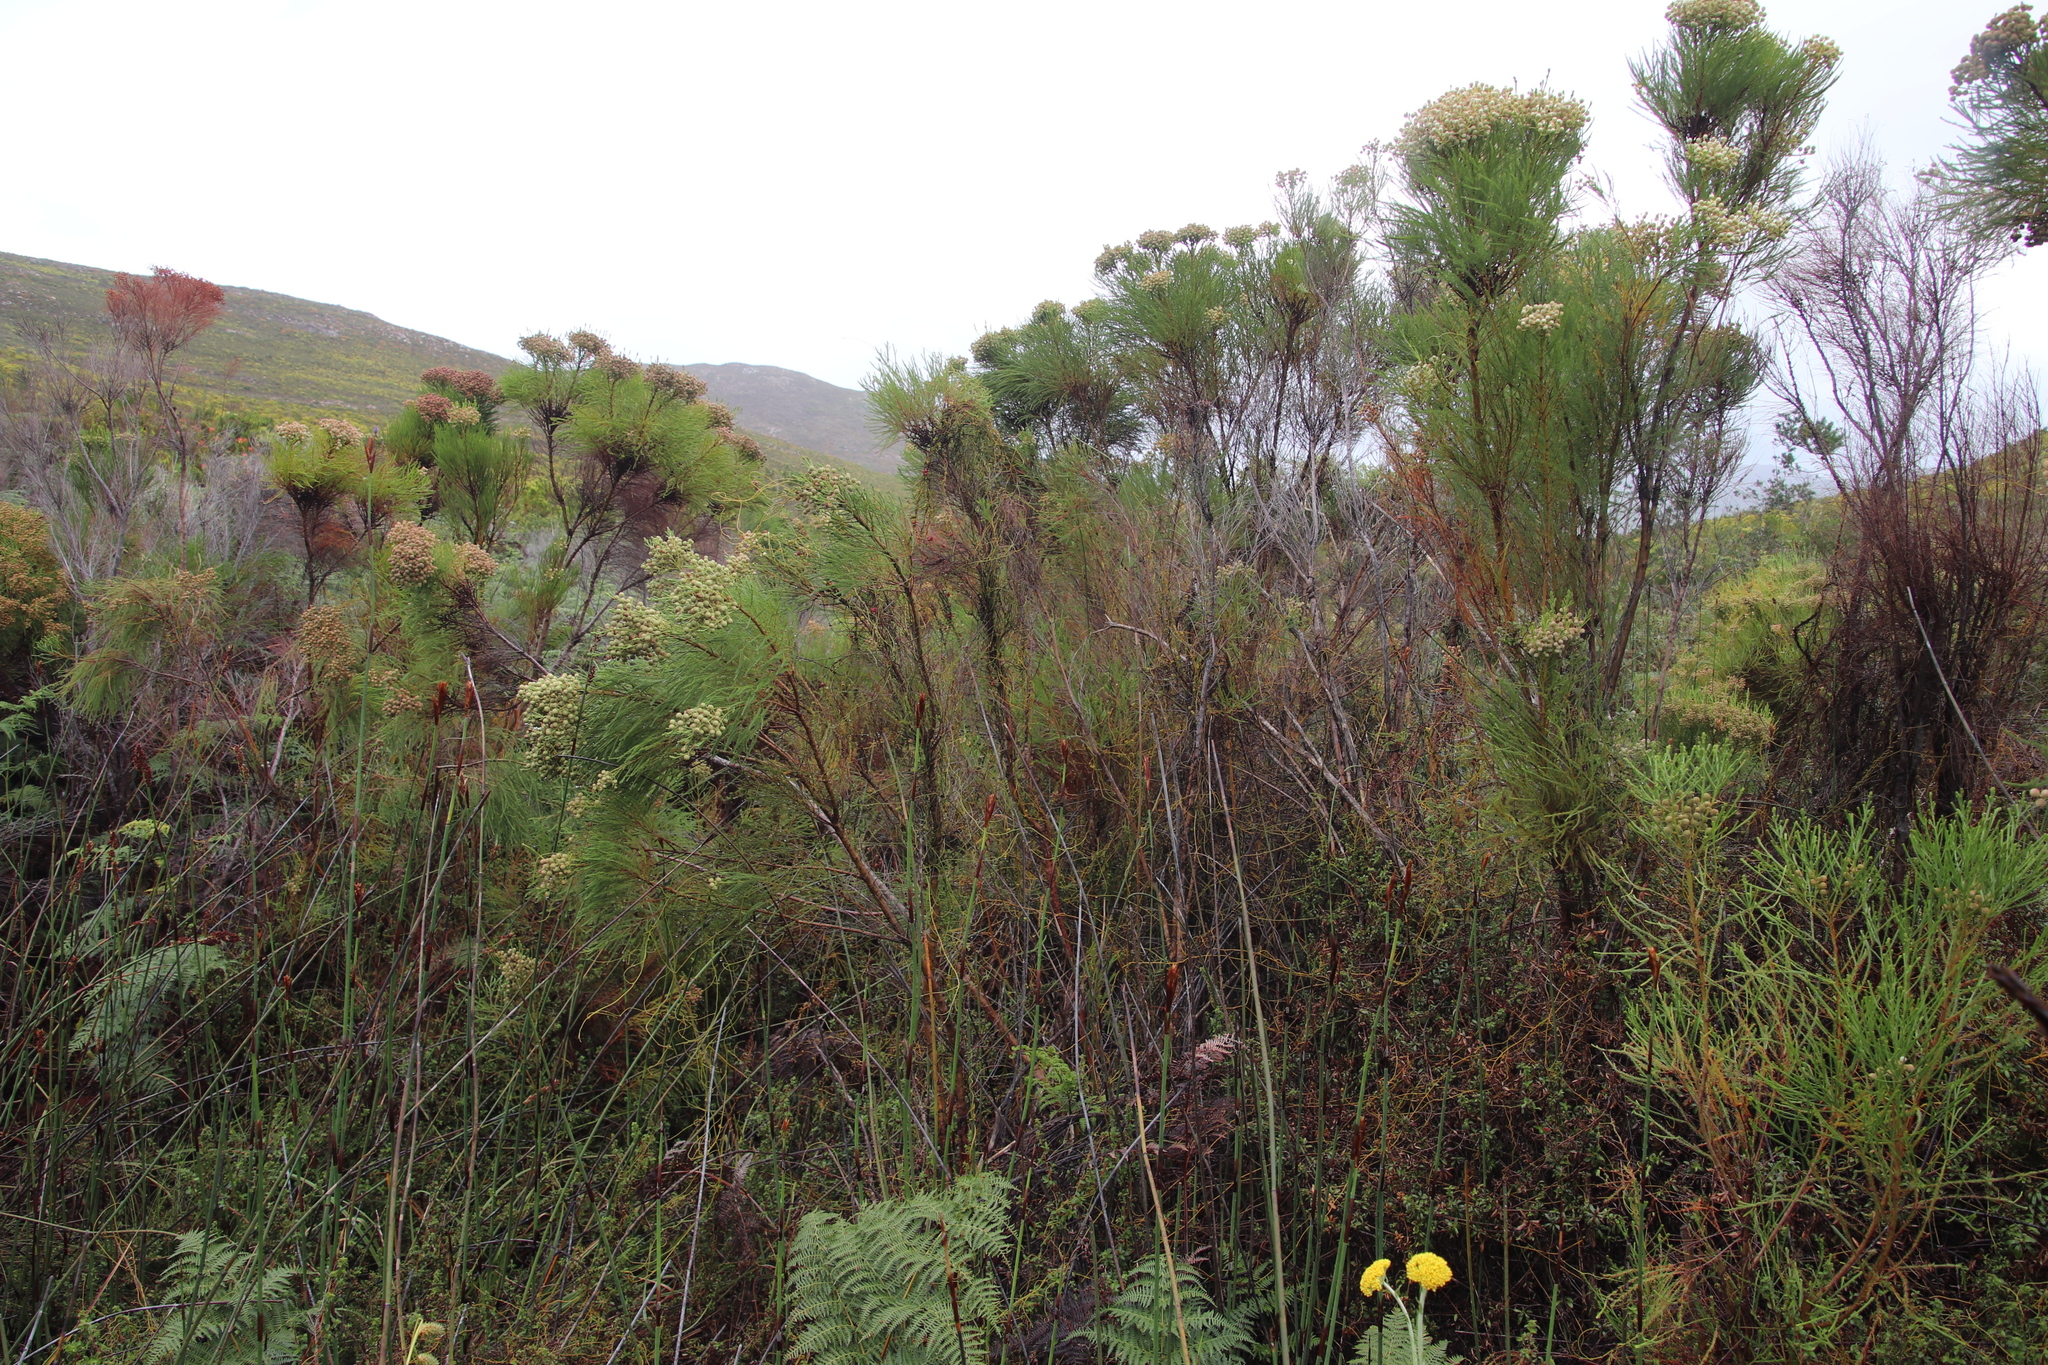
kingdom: Plantae
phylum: Tracheophyta
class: Magnoliopsida
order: Bruniales
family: Bruniaceae
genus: Berzelia
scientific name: Berzelia lanuginosa
